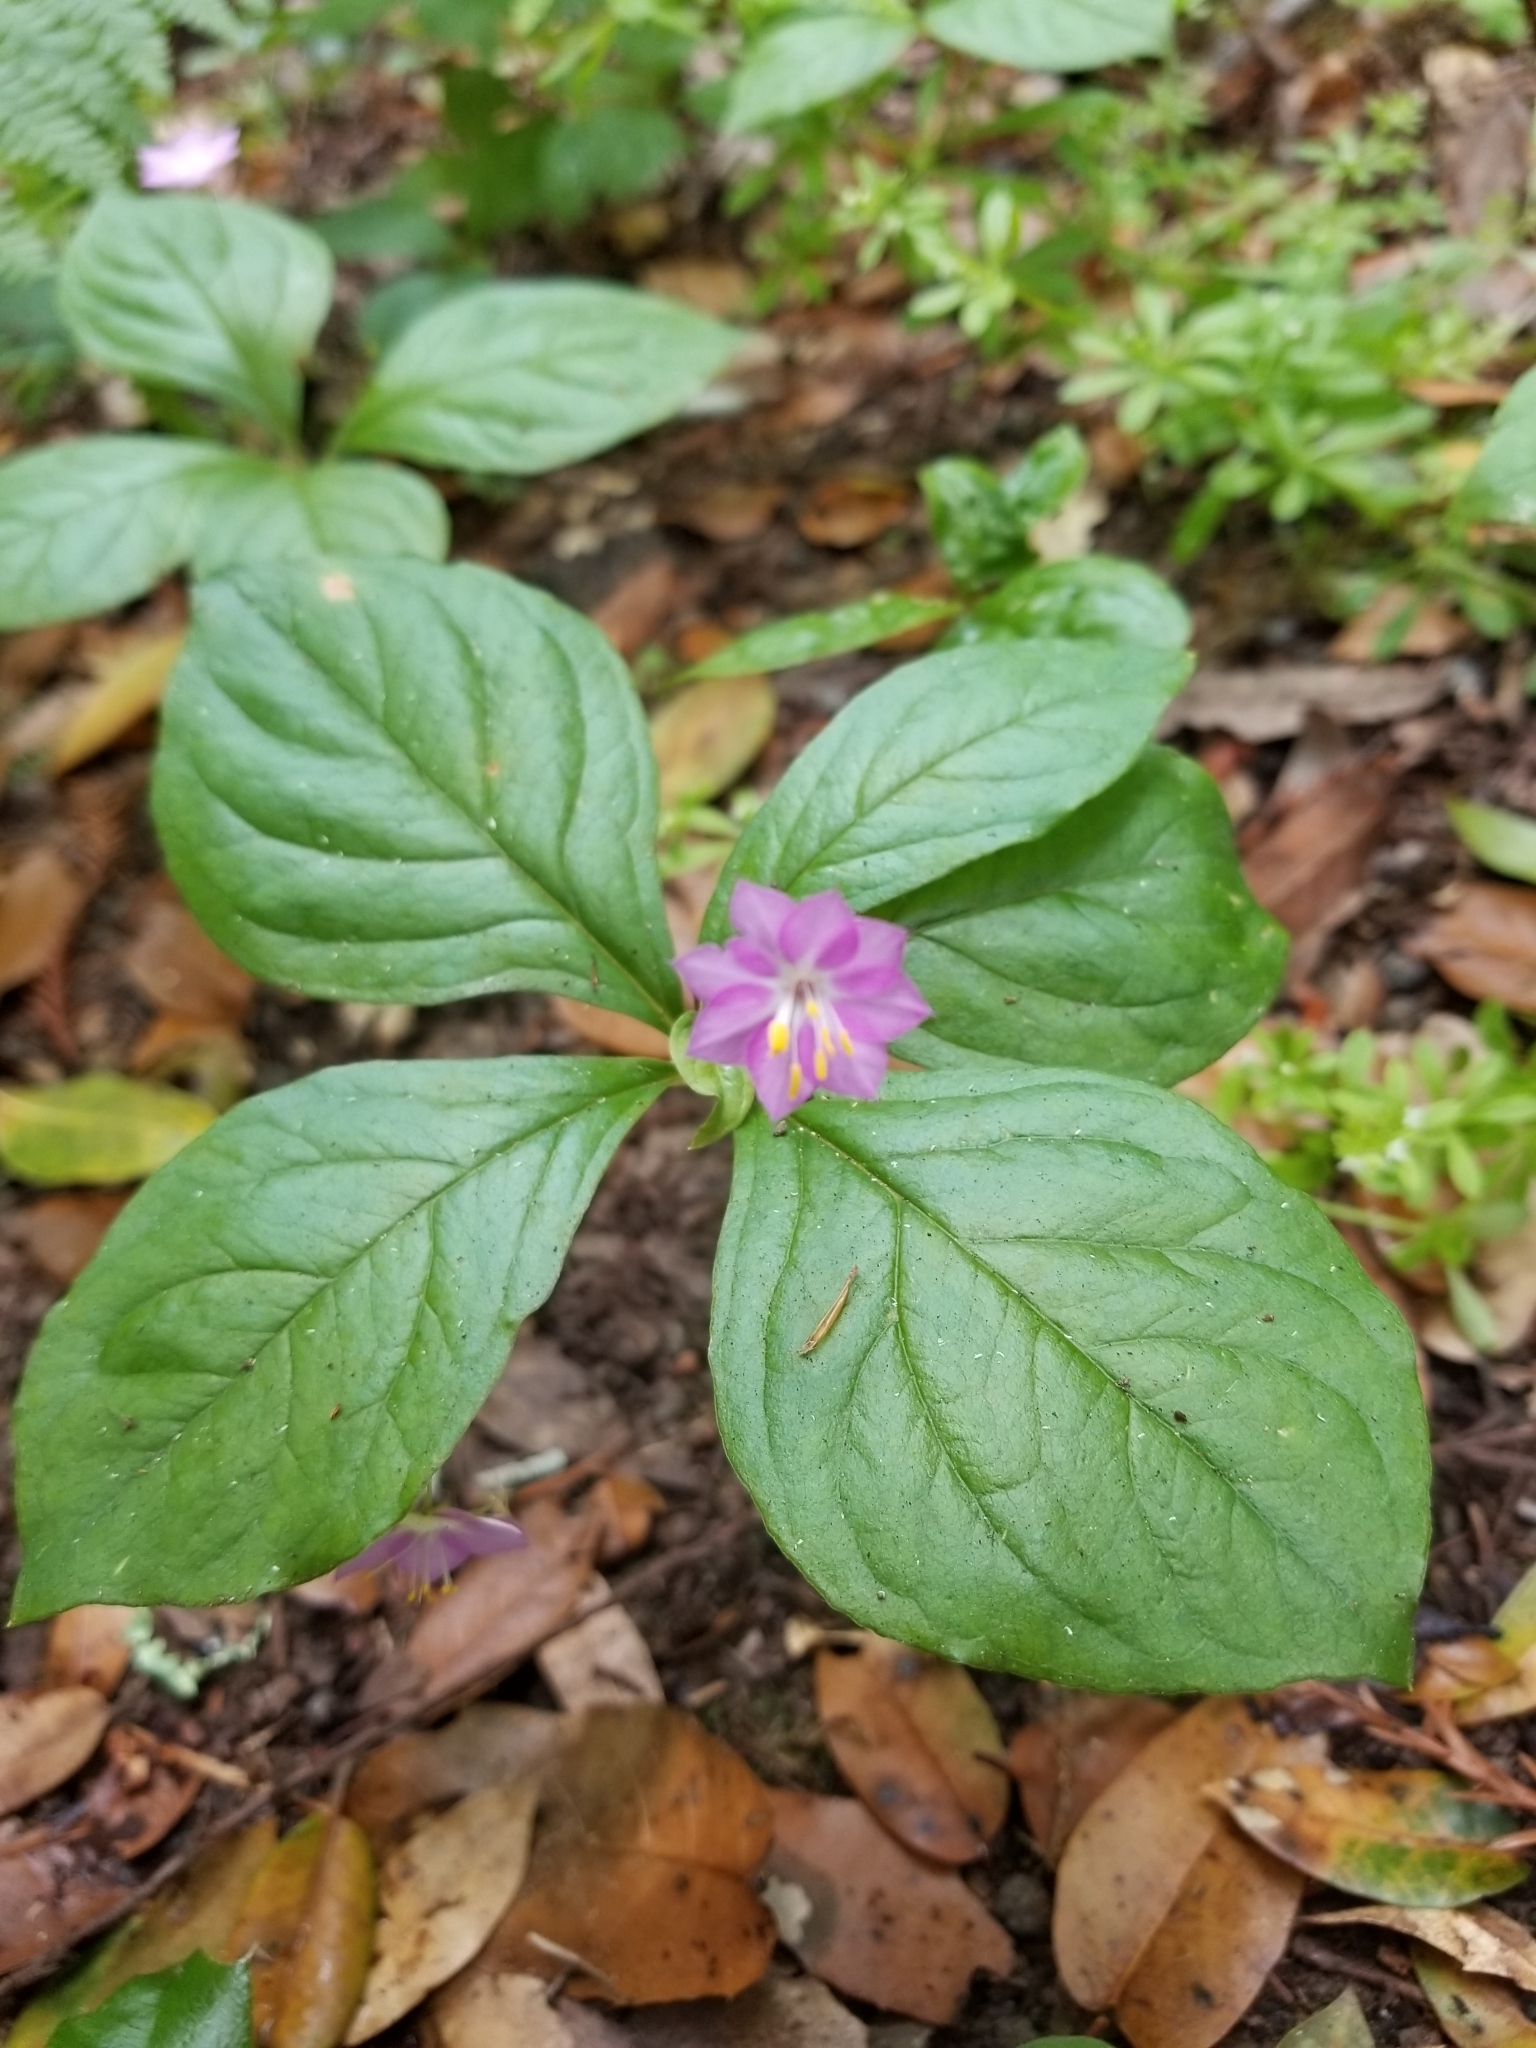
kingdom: Plantae
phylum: Tracheophyta
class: Magnoliopsida
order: Ericales
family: Primulaceae
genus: Lysimachia
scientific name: Lysimachia latifolia
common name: Pacific starflower
